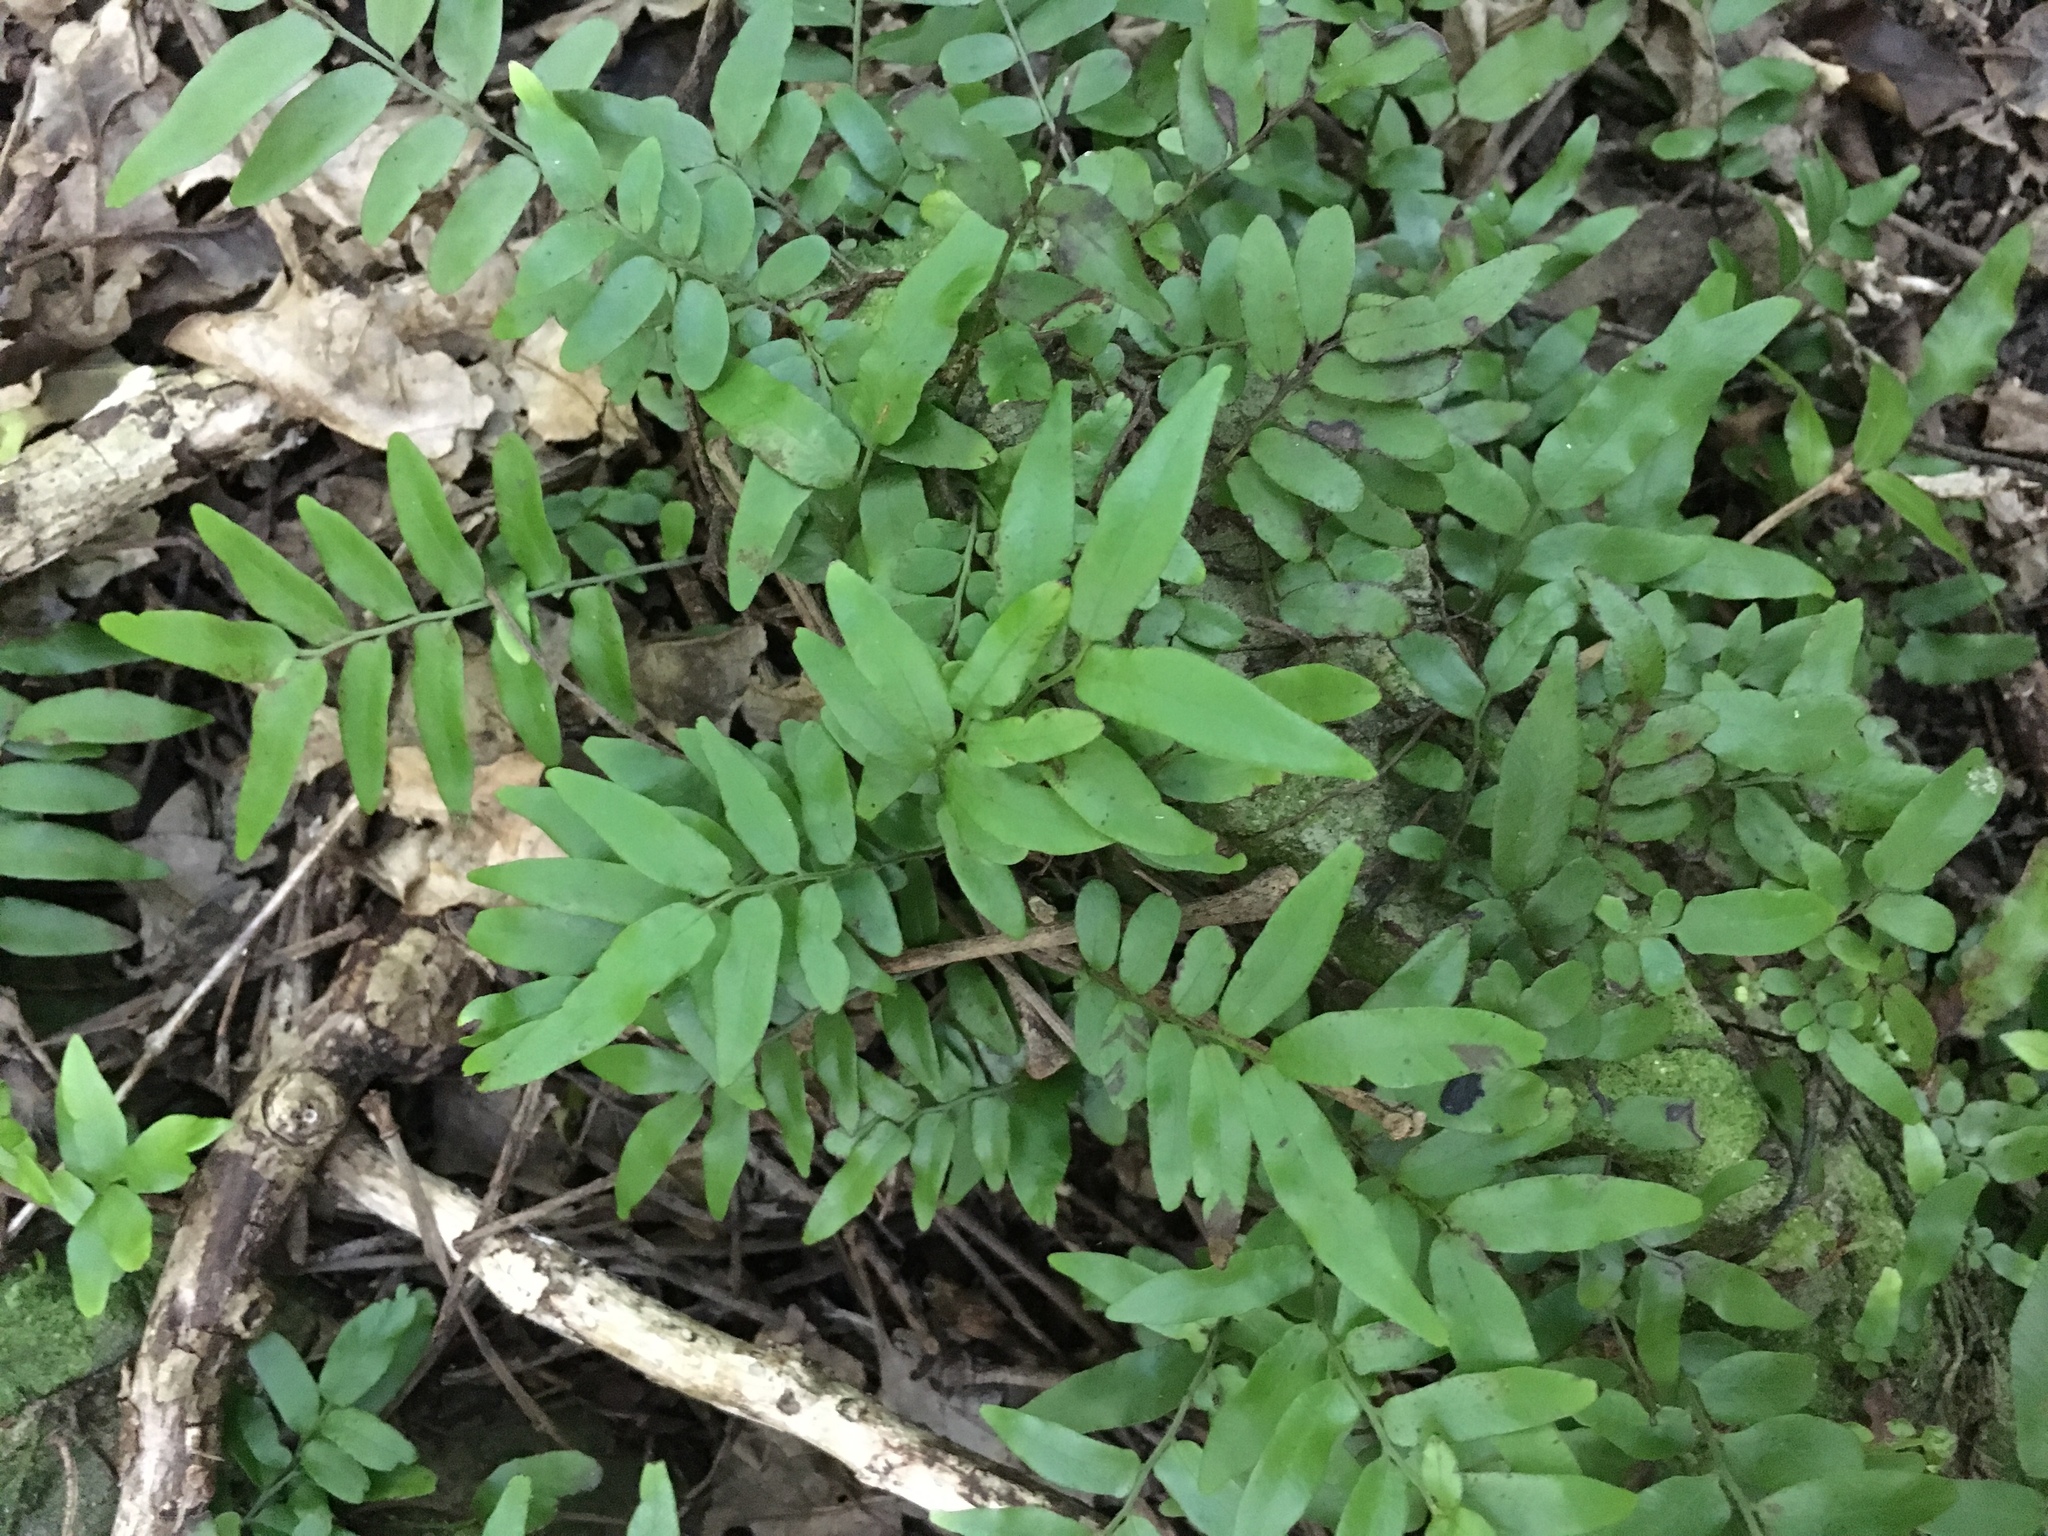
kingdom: Plantae
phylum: Tracheophyta
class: Polypodiopsida
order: Polypodiales
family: Tectariaceae
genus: Arthropteris
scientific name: Arthropteris tenella
